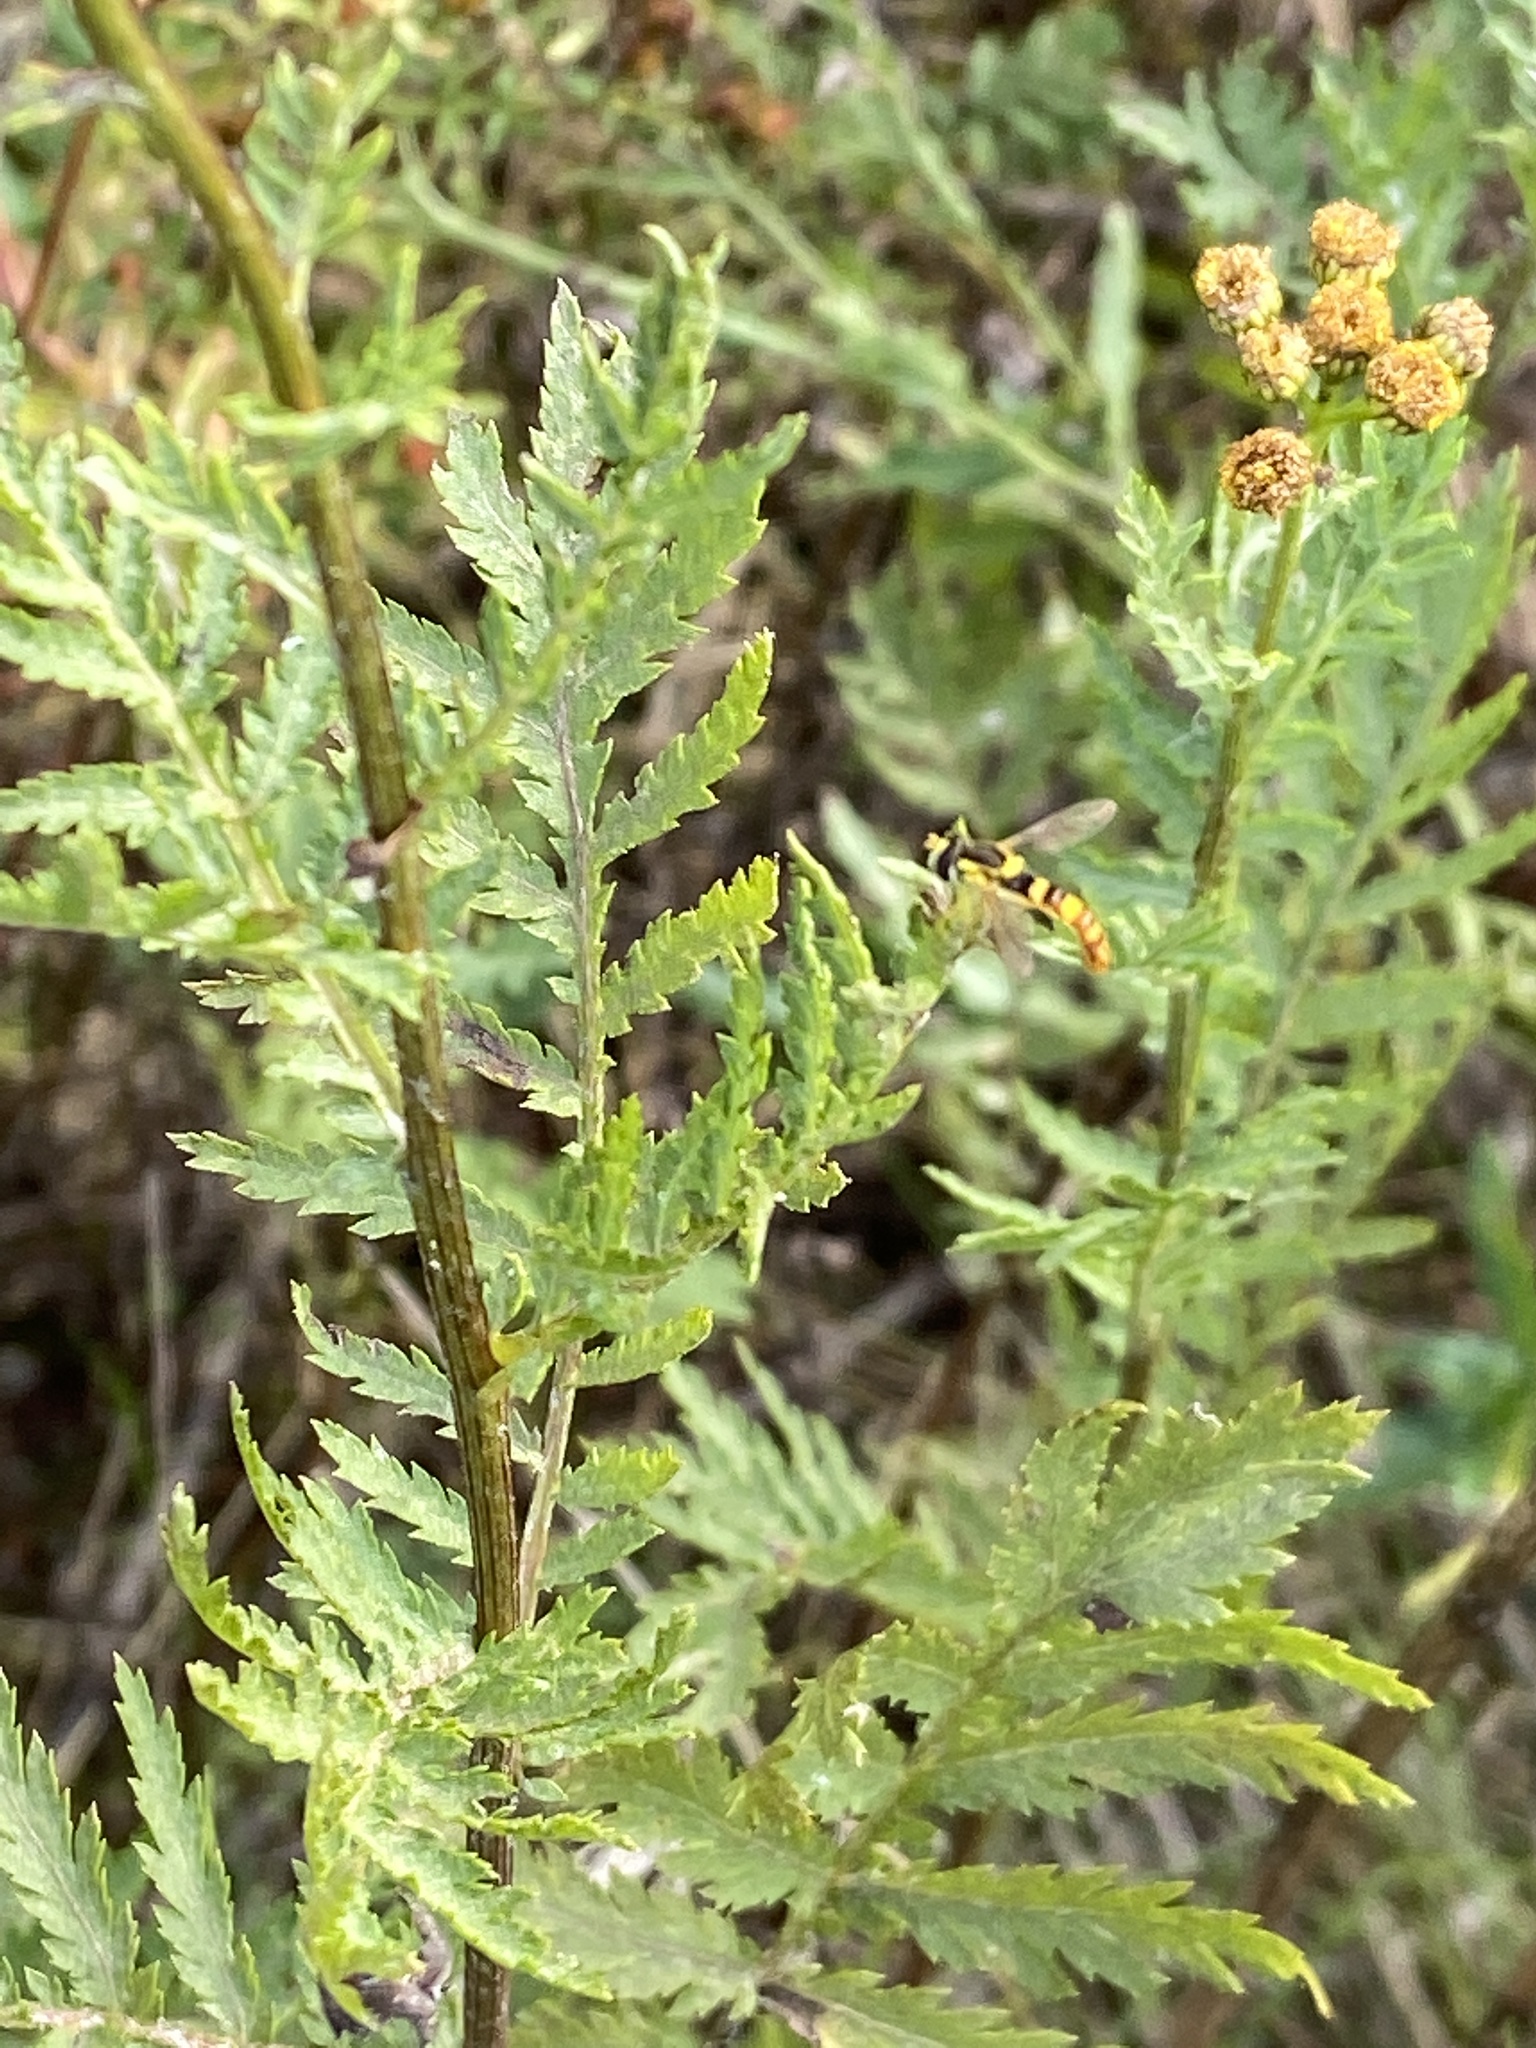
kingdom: Animalia
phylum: Arthropoda
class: Insecta
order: Diptera
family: Syrphidae
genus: Sphaerophoria
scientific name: Sphaerophoria scripta
